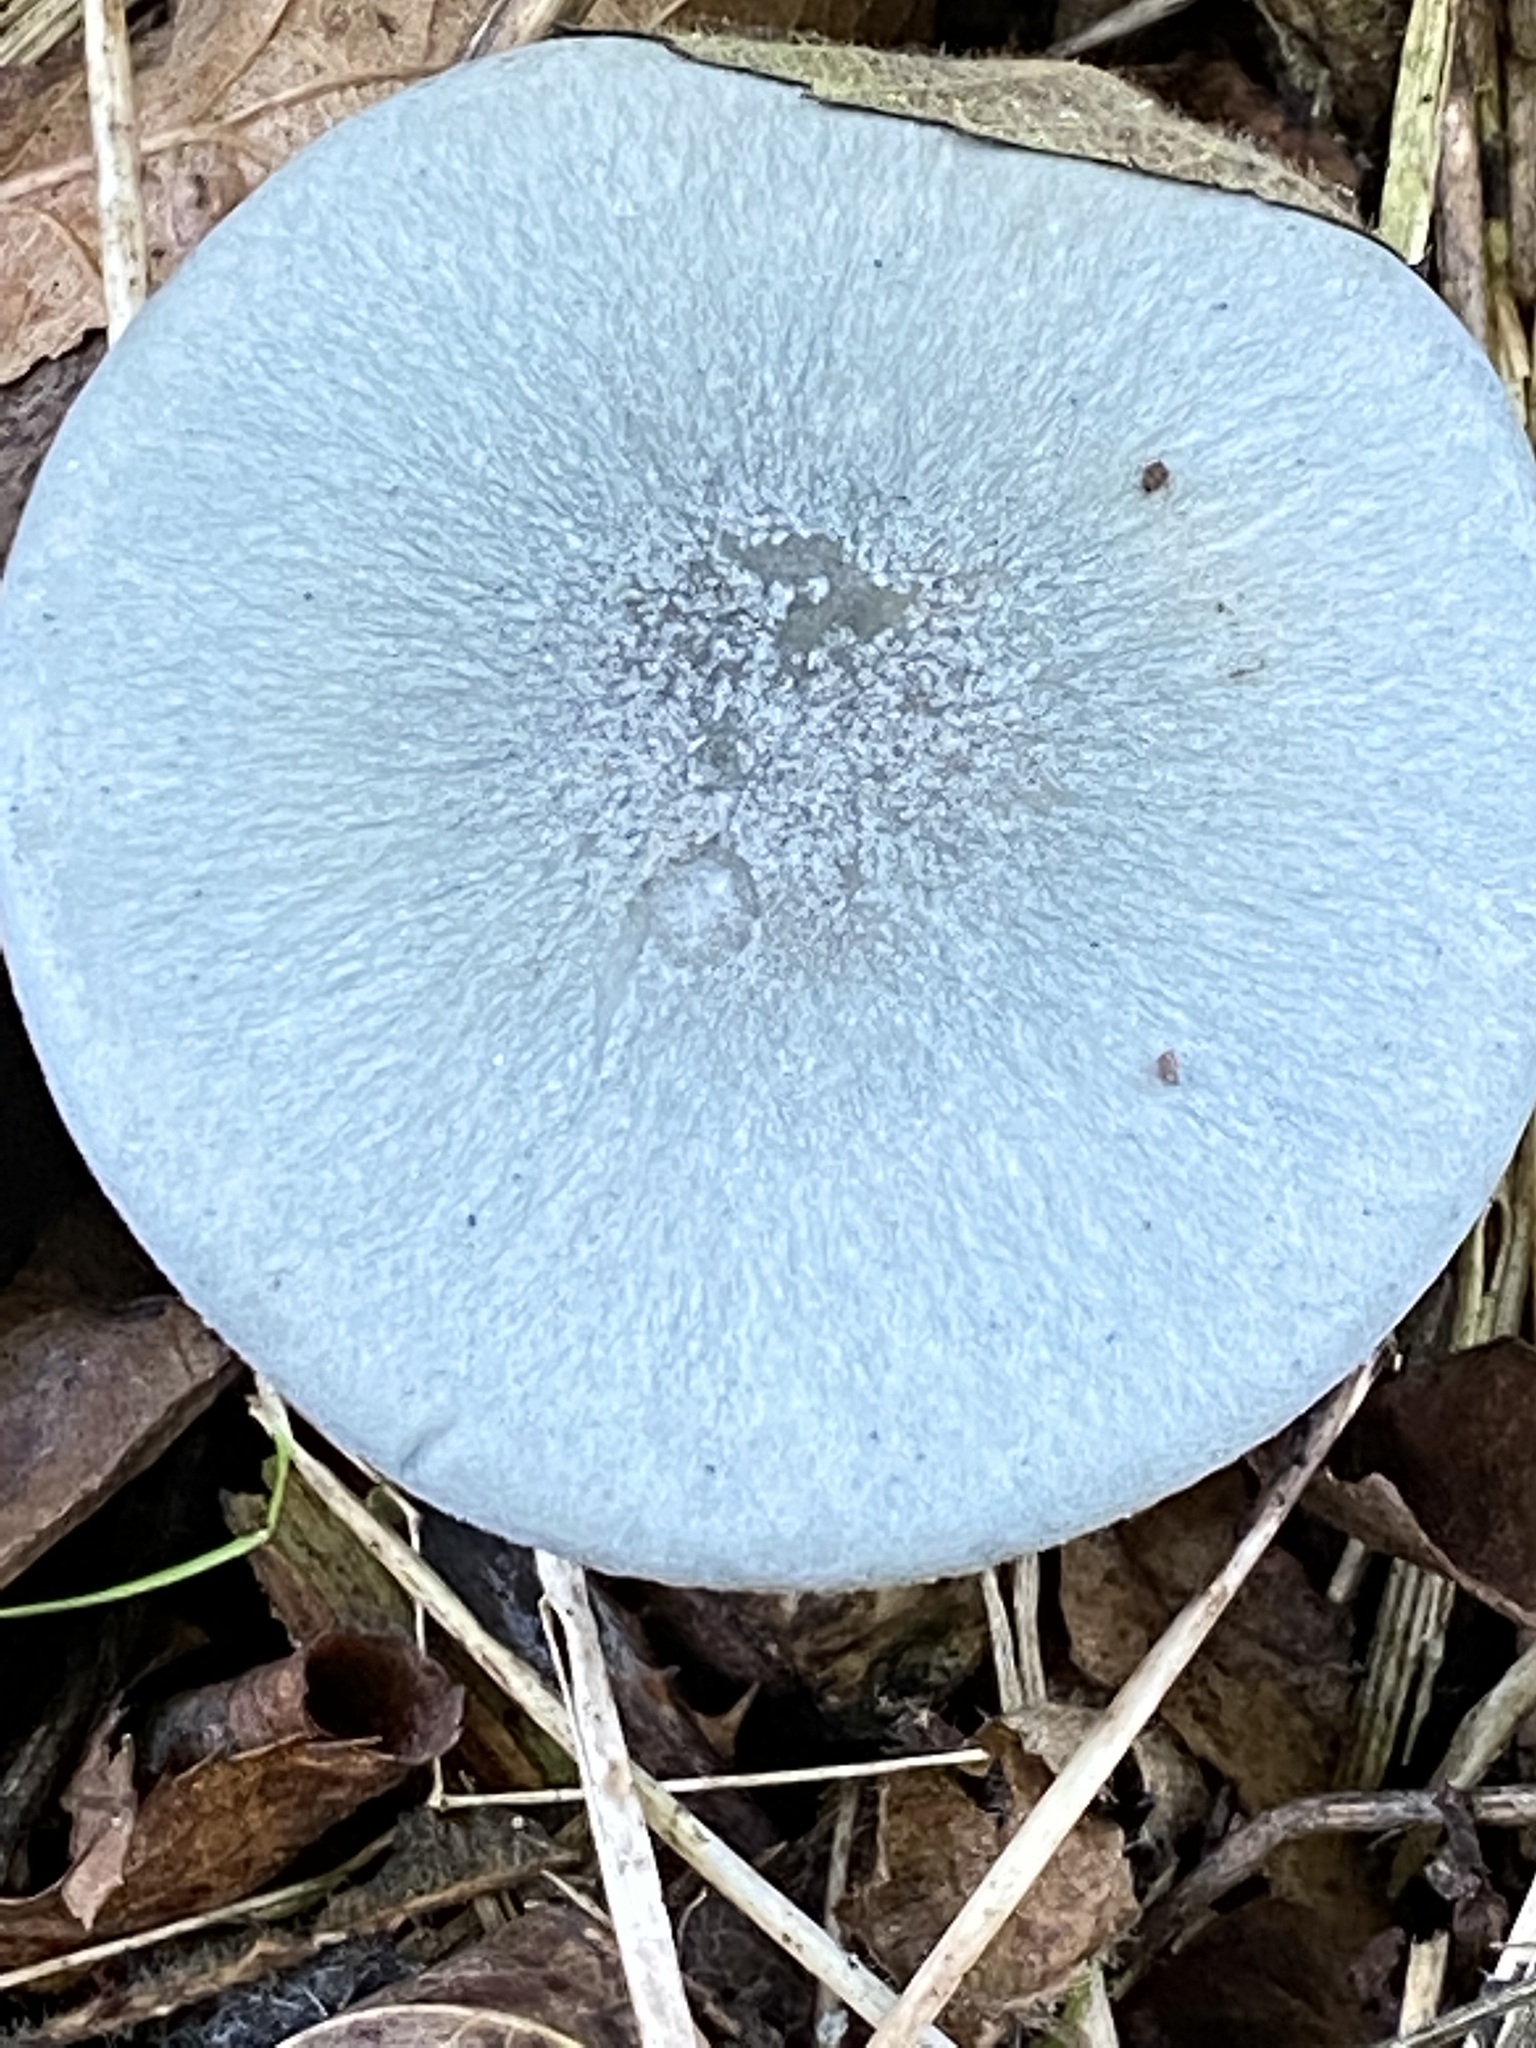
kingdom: Fungi
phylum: Basidiomycota
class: Agaricomycetes
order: Agaricales
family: Tricholomataceae
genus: Collybia
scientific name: Collybia
